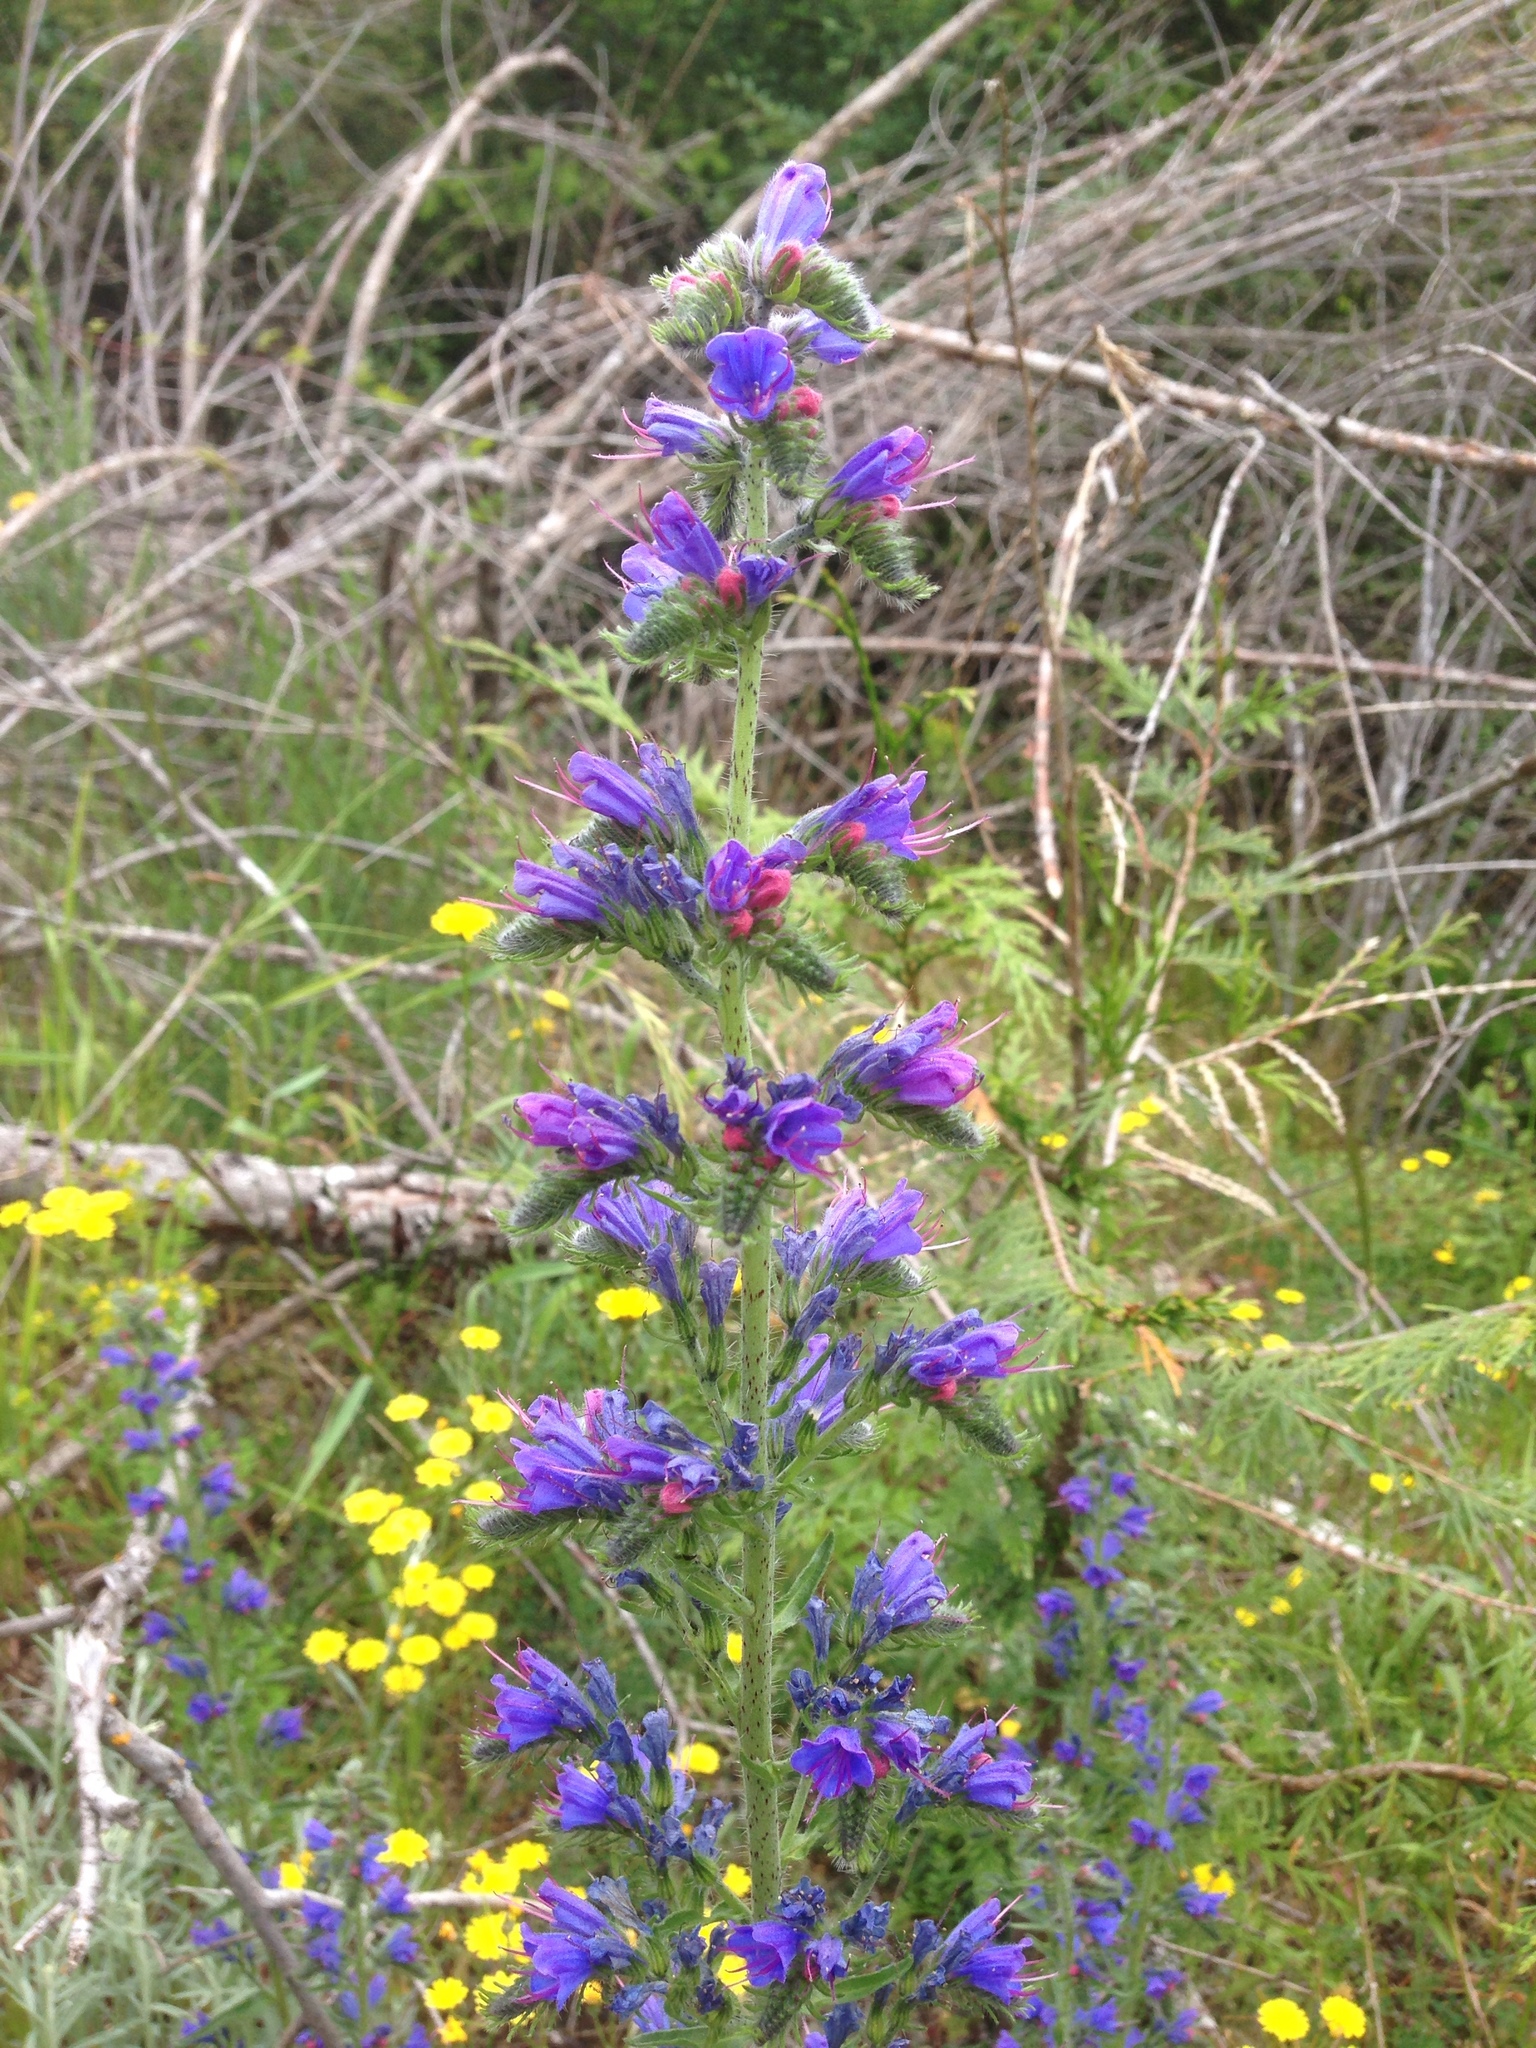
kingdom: Plantae
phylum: Tracheophyta
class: Magnoliopsida
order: Boraginales
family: Boraginaceae
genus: Echium
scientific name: Echium vulgare
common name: Common viper's bugloss
